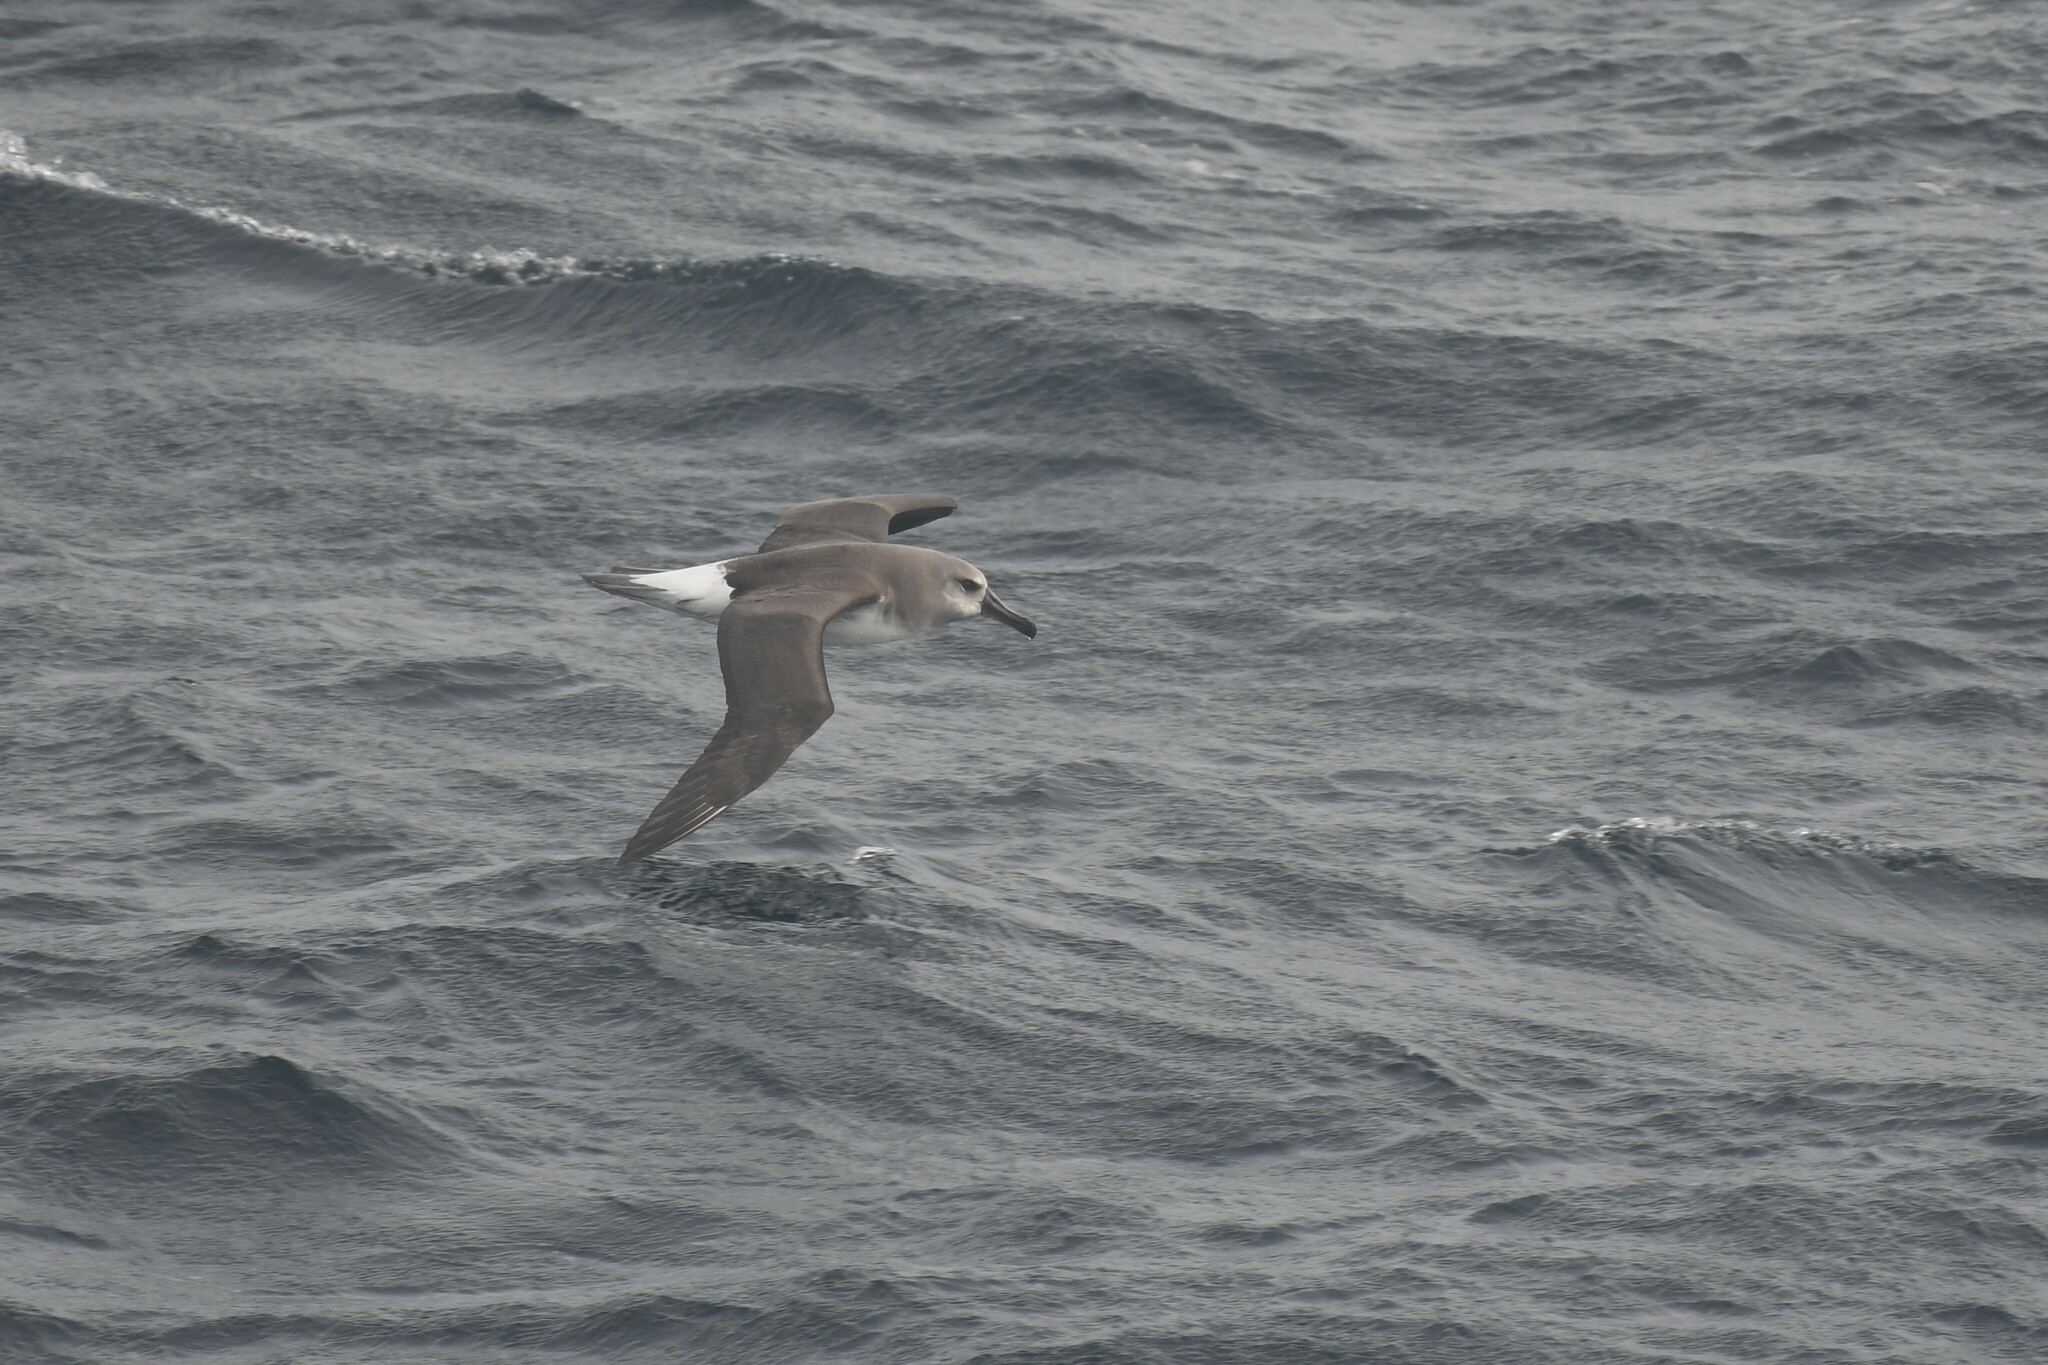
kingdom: Animalia
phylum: Chordata
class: Aves
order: Procellariiformes
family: Diomedeidae
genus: Thalassarche
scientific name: Thalassarche chrysostoma
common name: Grey-headed albatross
